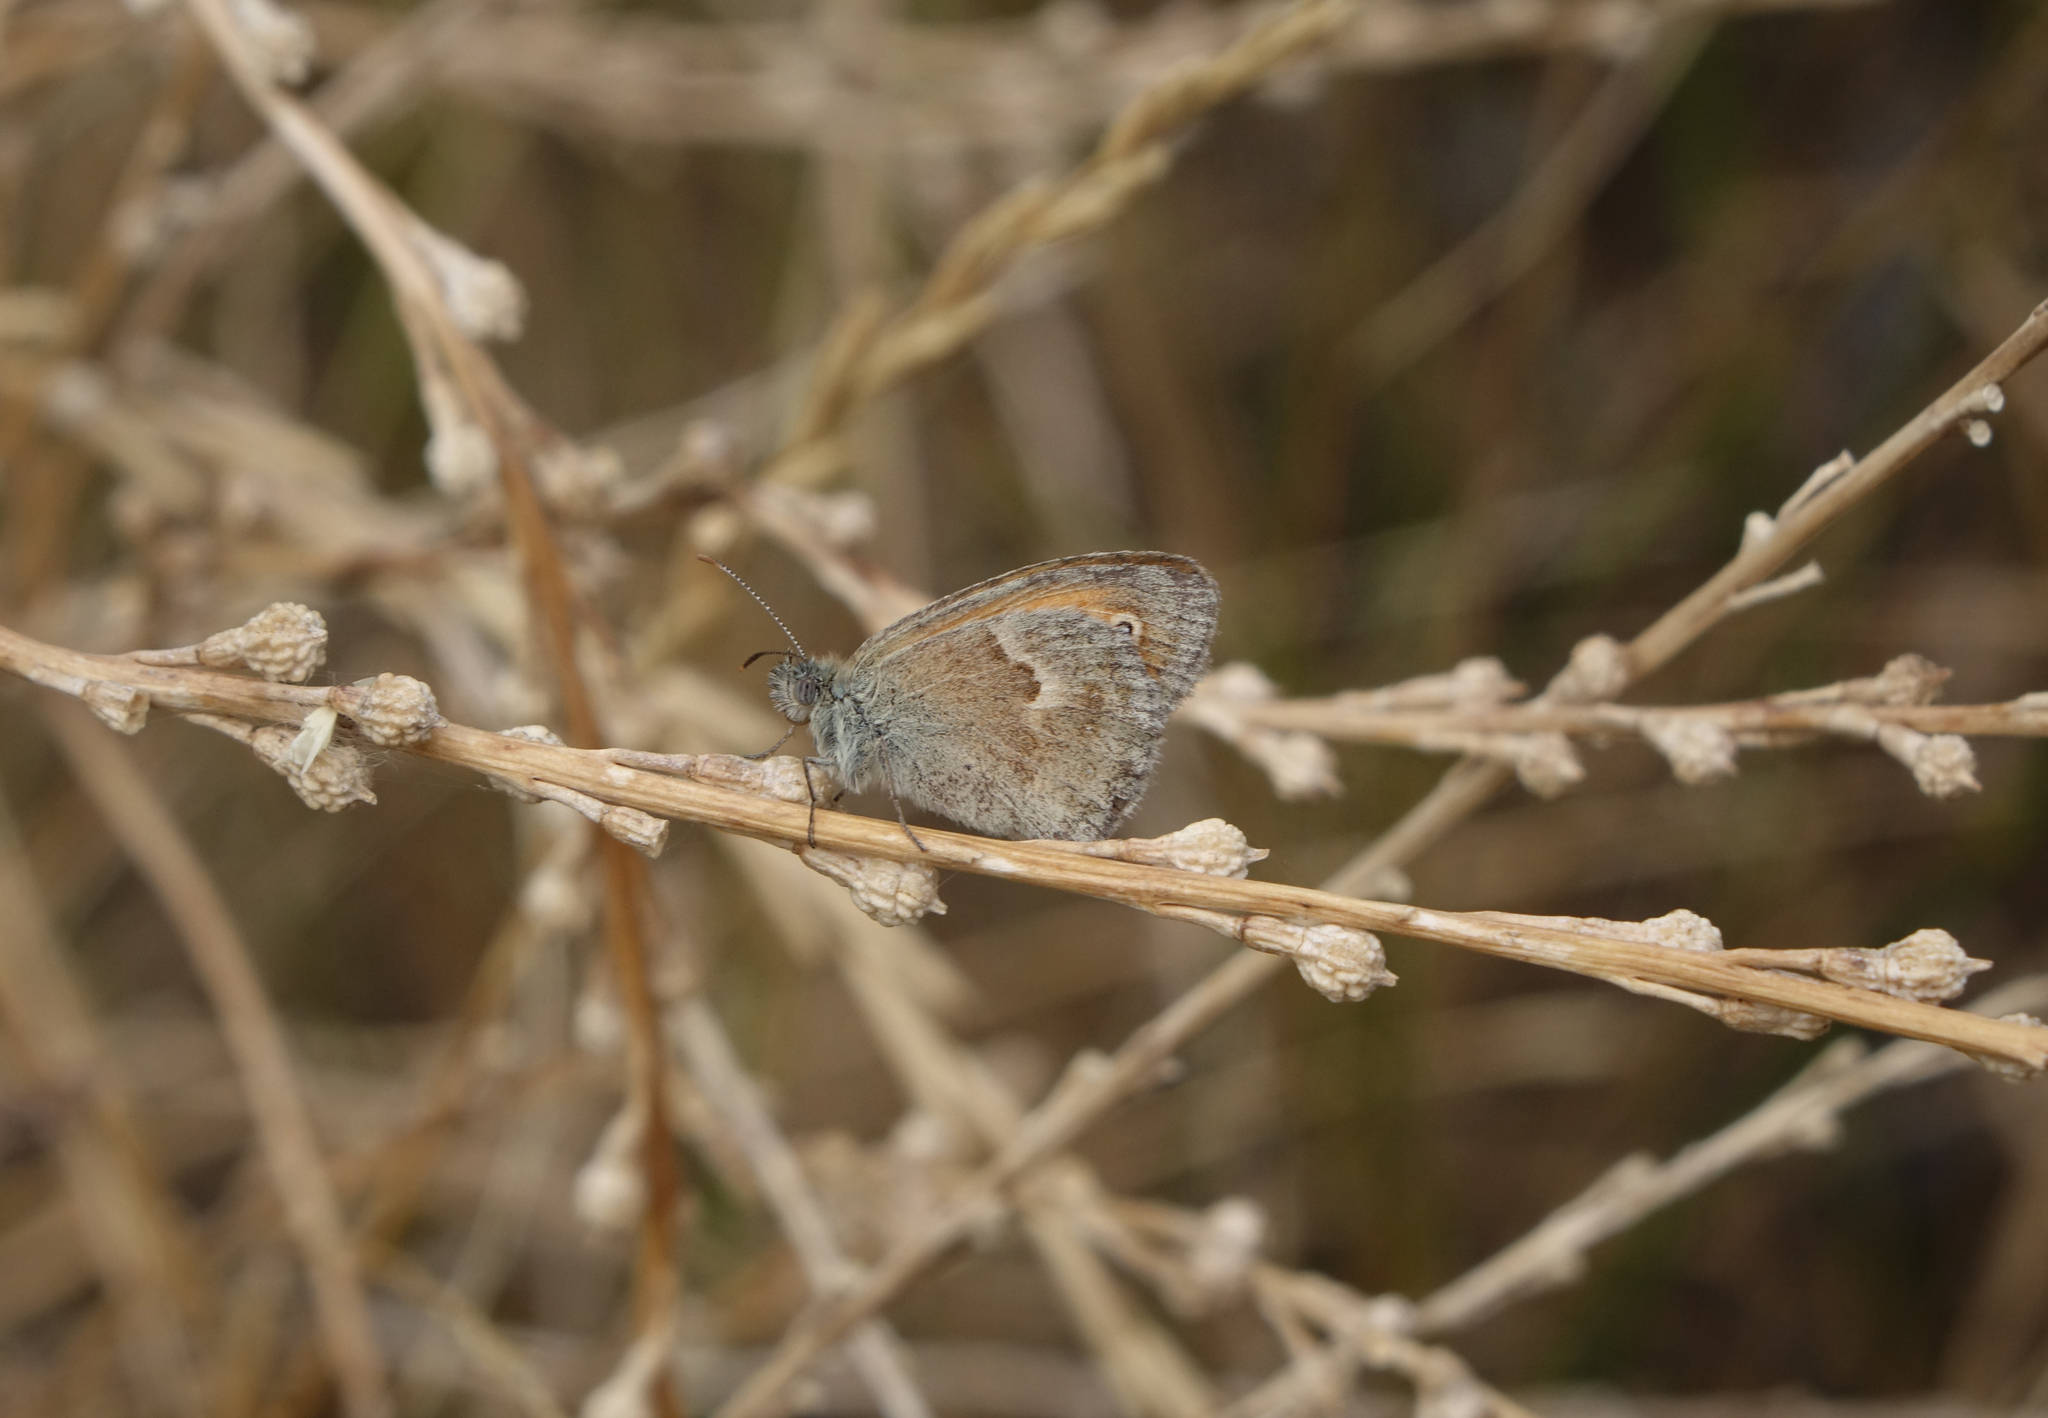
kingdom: Animalia
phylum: Arthropoda
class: Insecta
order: Lepidoptera
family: Nymphalidae
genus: Coenonympha
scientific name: Coenonympha pamphilus
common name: Small heath
